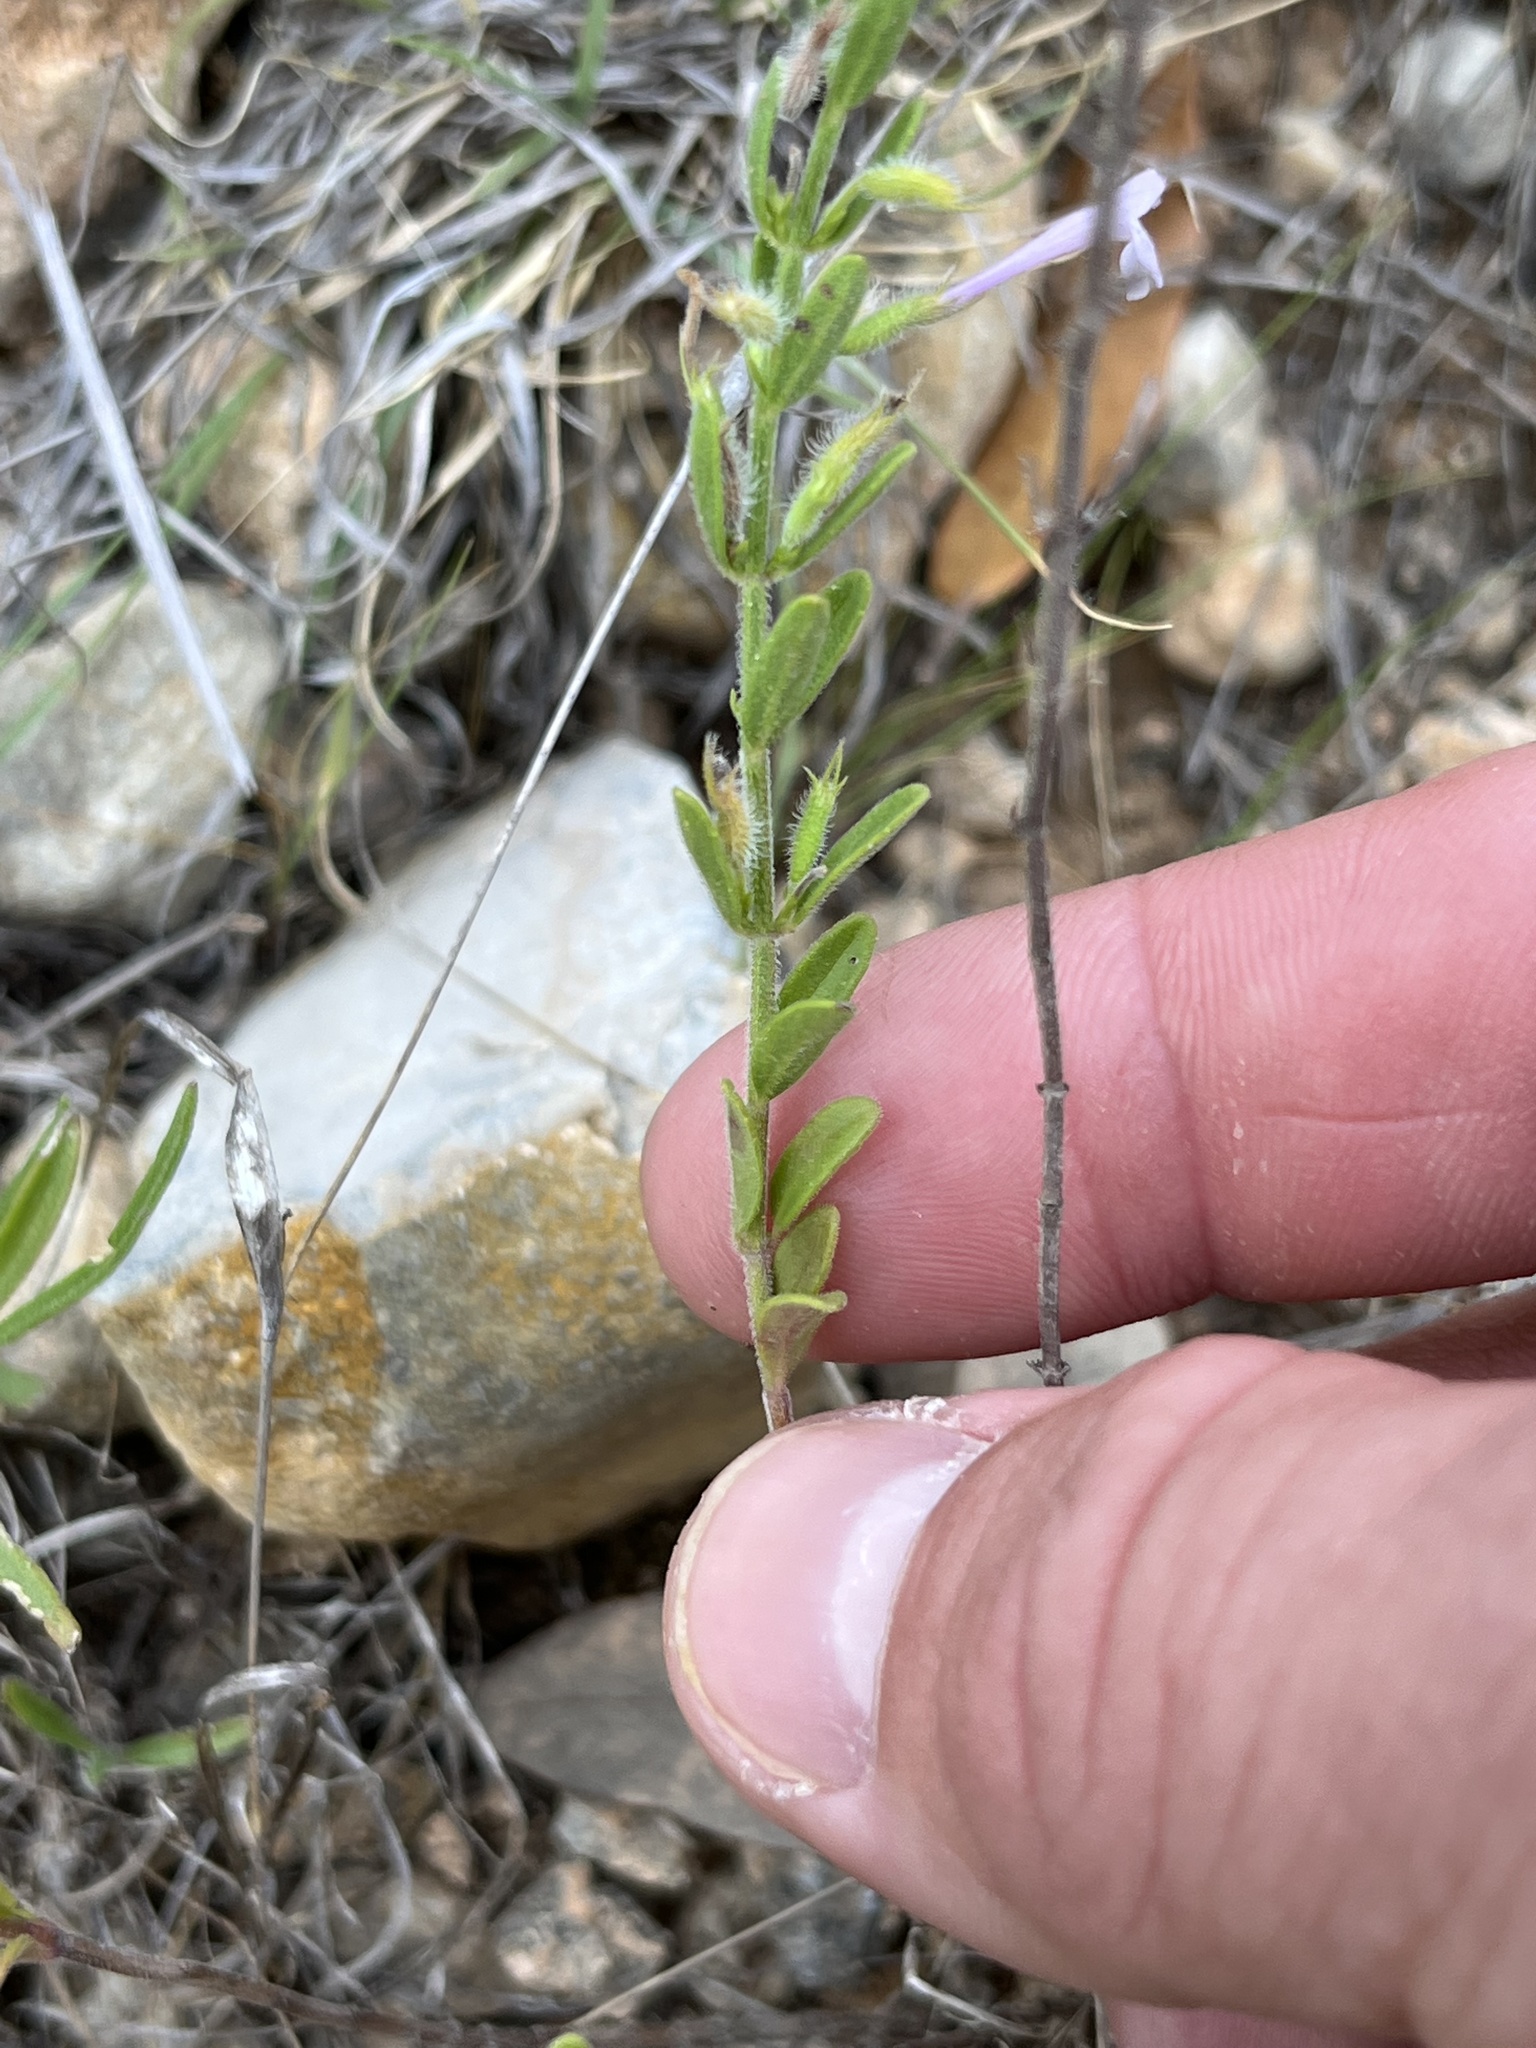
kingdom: Plantae
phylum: Tracheophyta
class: Magnoliopsida
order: Lamiales
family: Lamiaceae
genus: Hedeoma
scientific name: Hedeoma reverchonii
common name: Reverchon's false penny-royal
